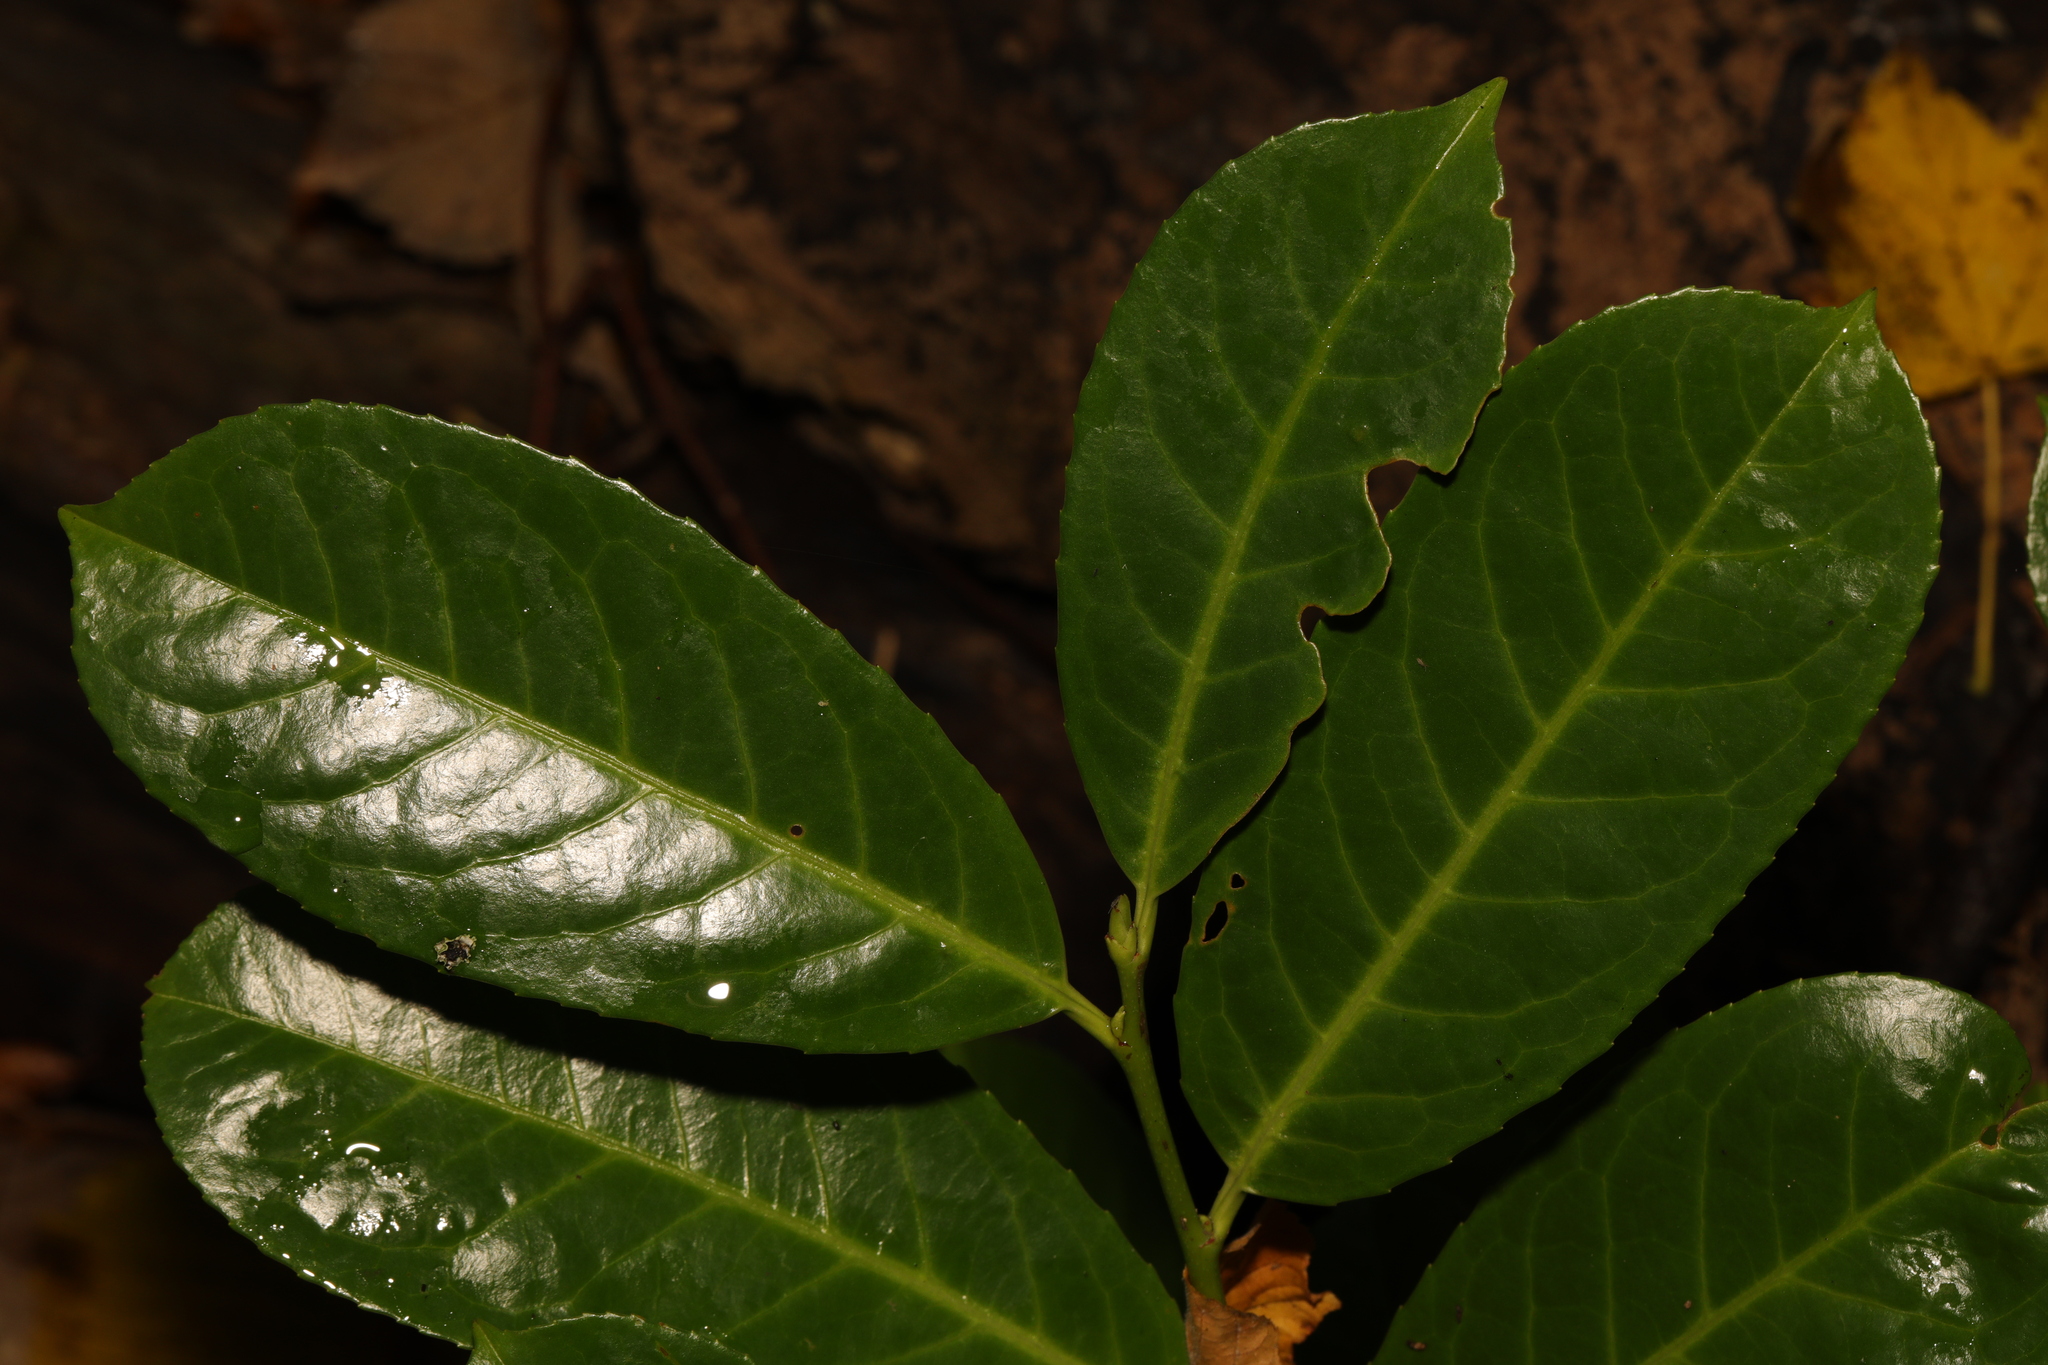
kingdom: Plantae
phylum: Tracheophyta
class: Magnoliopsida
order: Rosales
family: Rosaceae
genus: Prunus
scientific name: Prunus laurocerasus
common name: Cherry laurel
